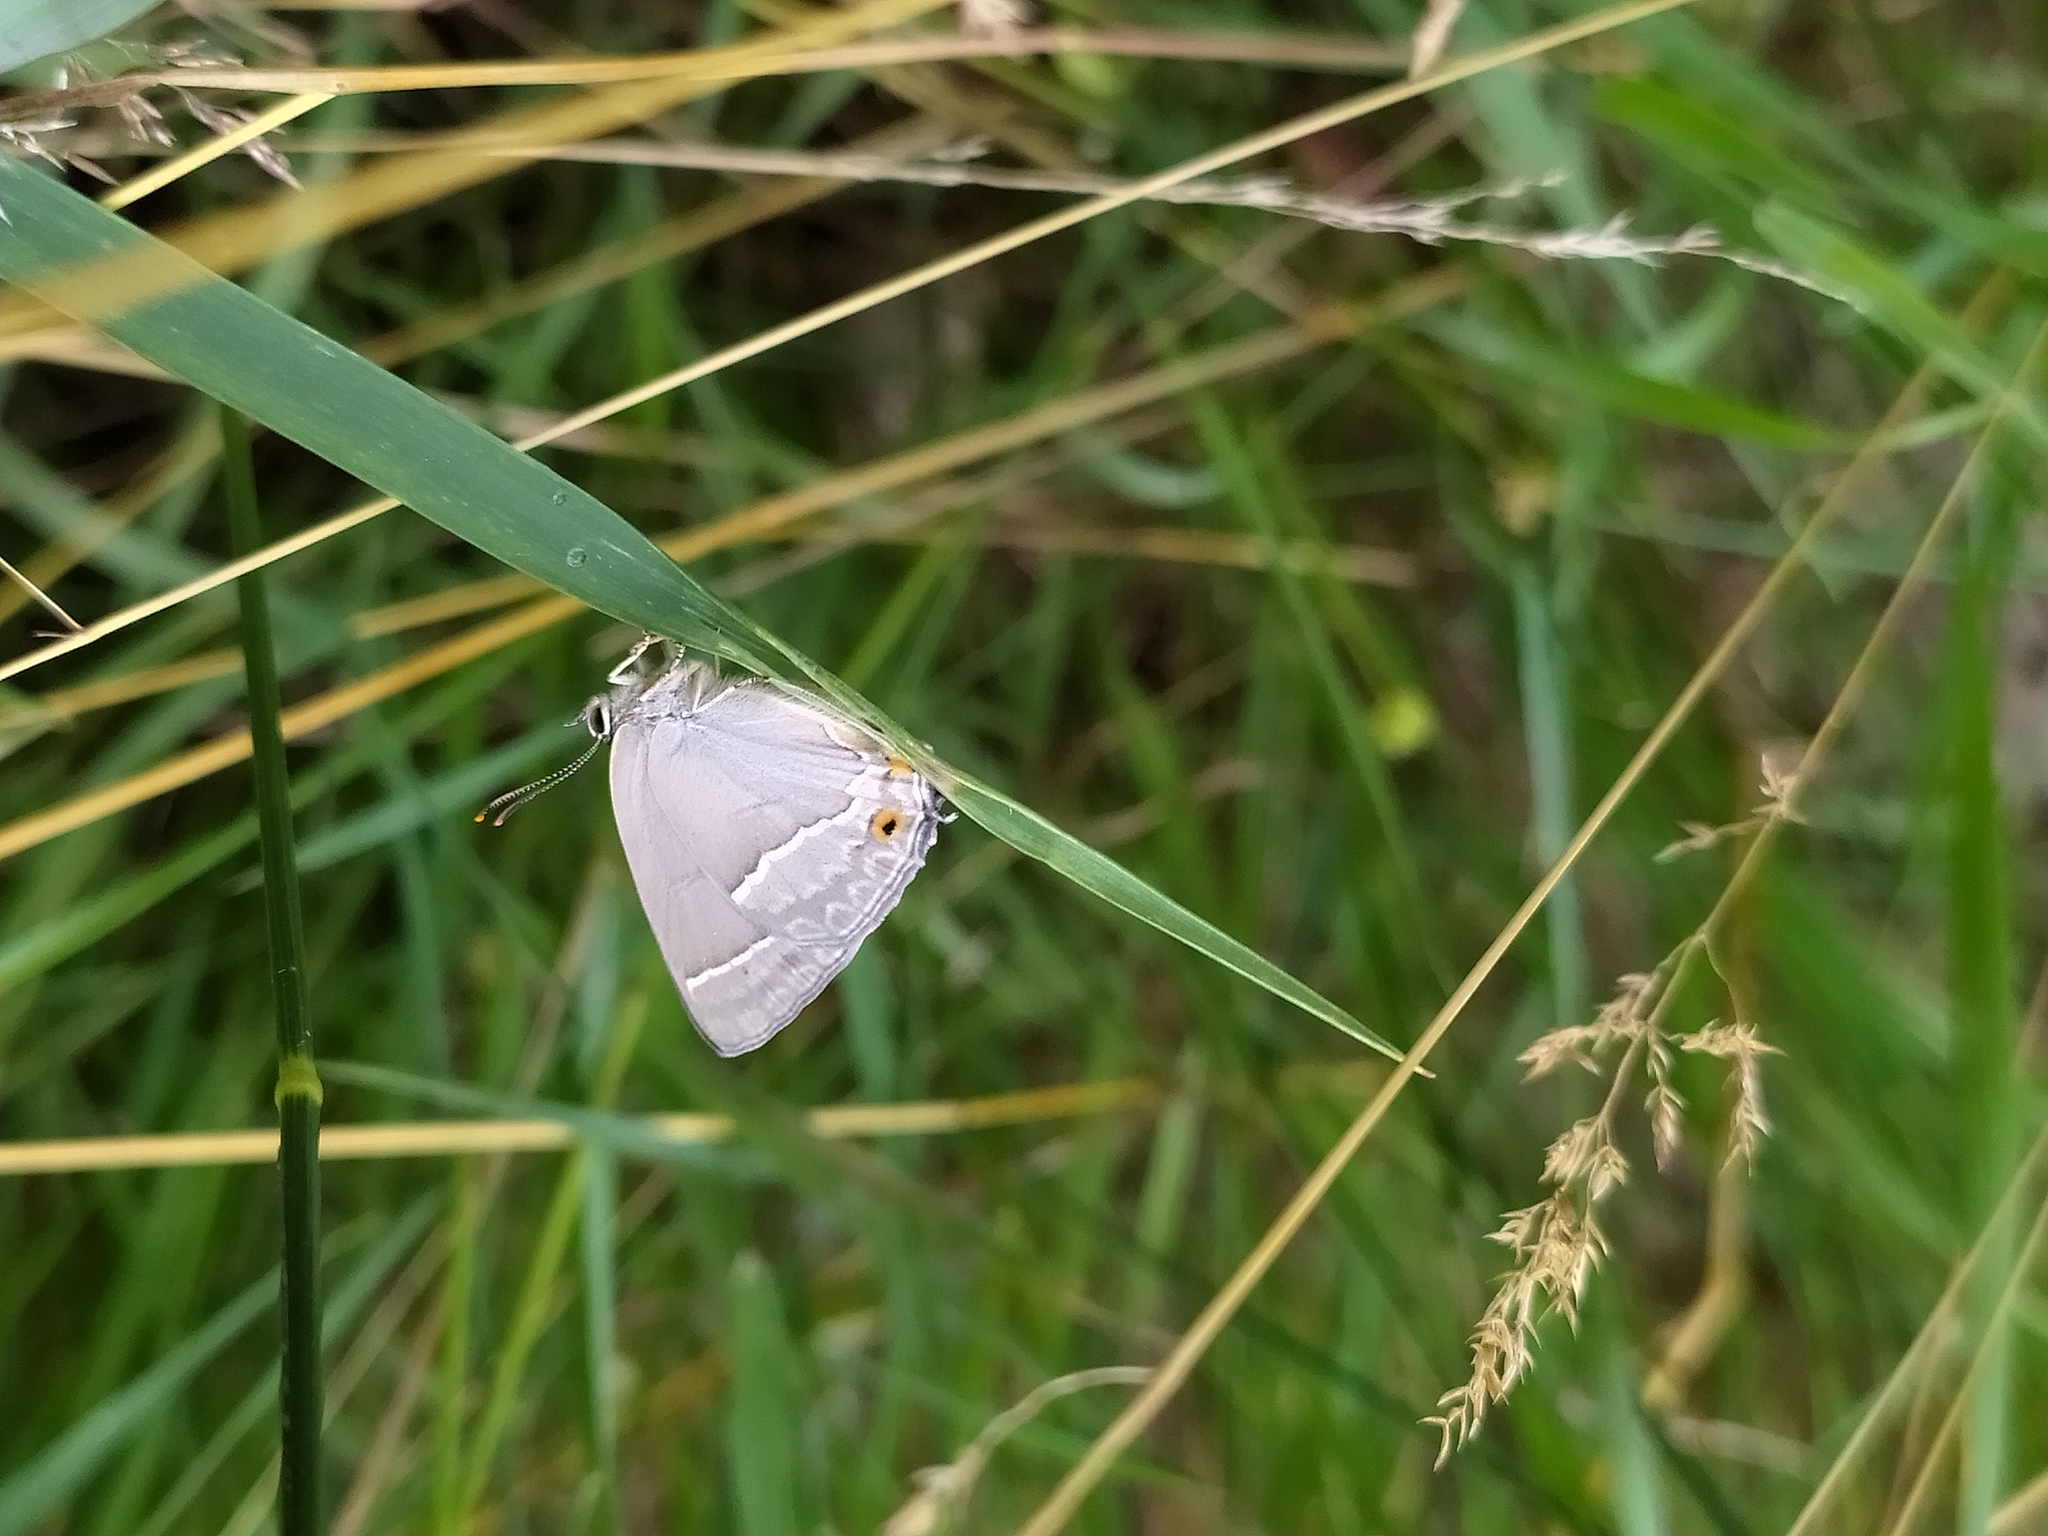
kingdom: Animalia
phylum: Arthropoda
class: Insecta
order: Lepidoptera
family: Lycaenidae
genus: Quercusia
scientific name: Quercusia quercus
